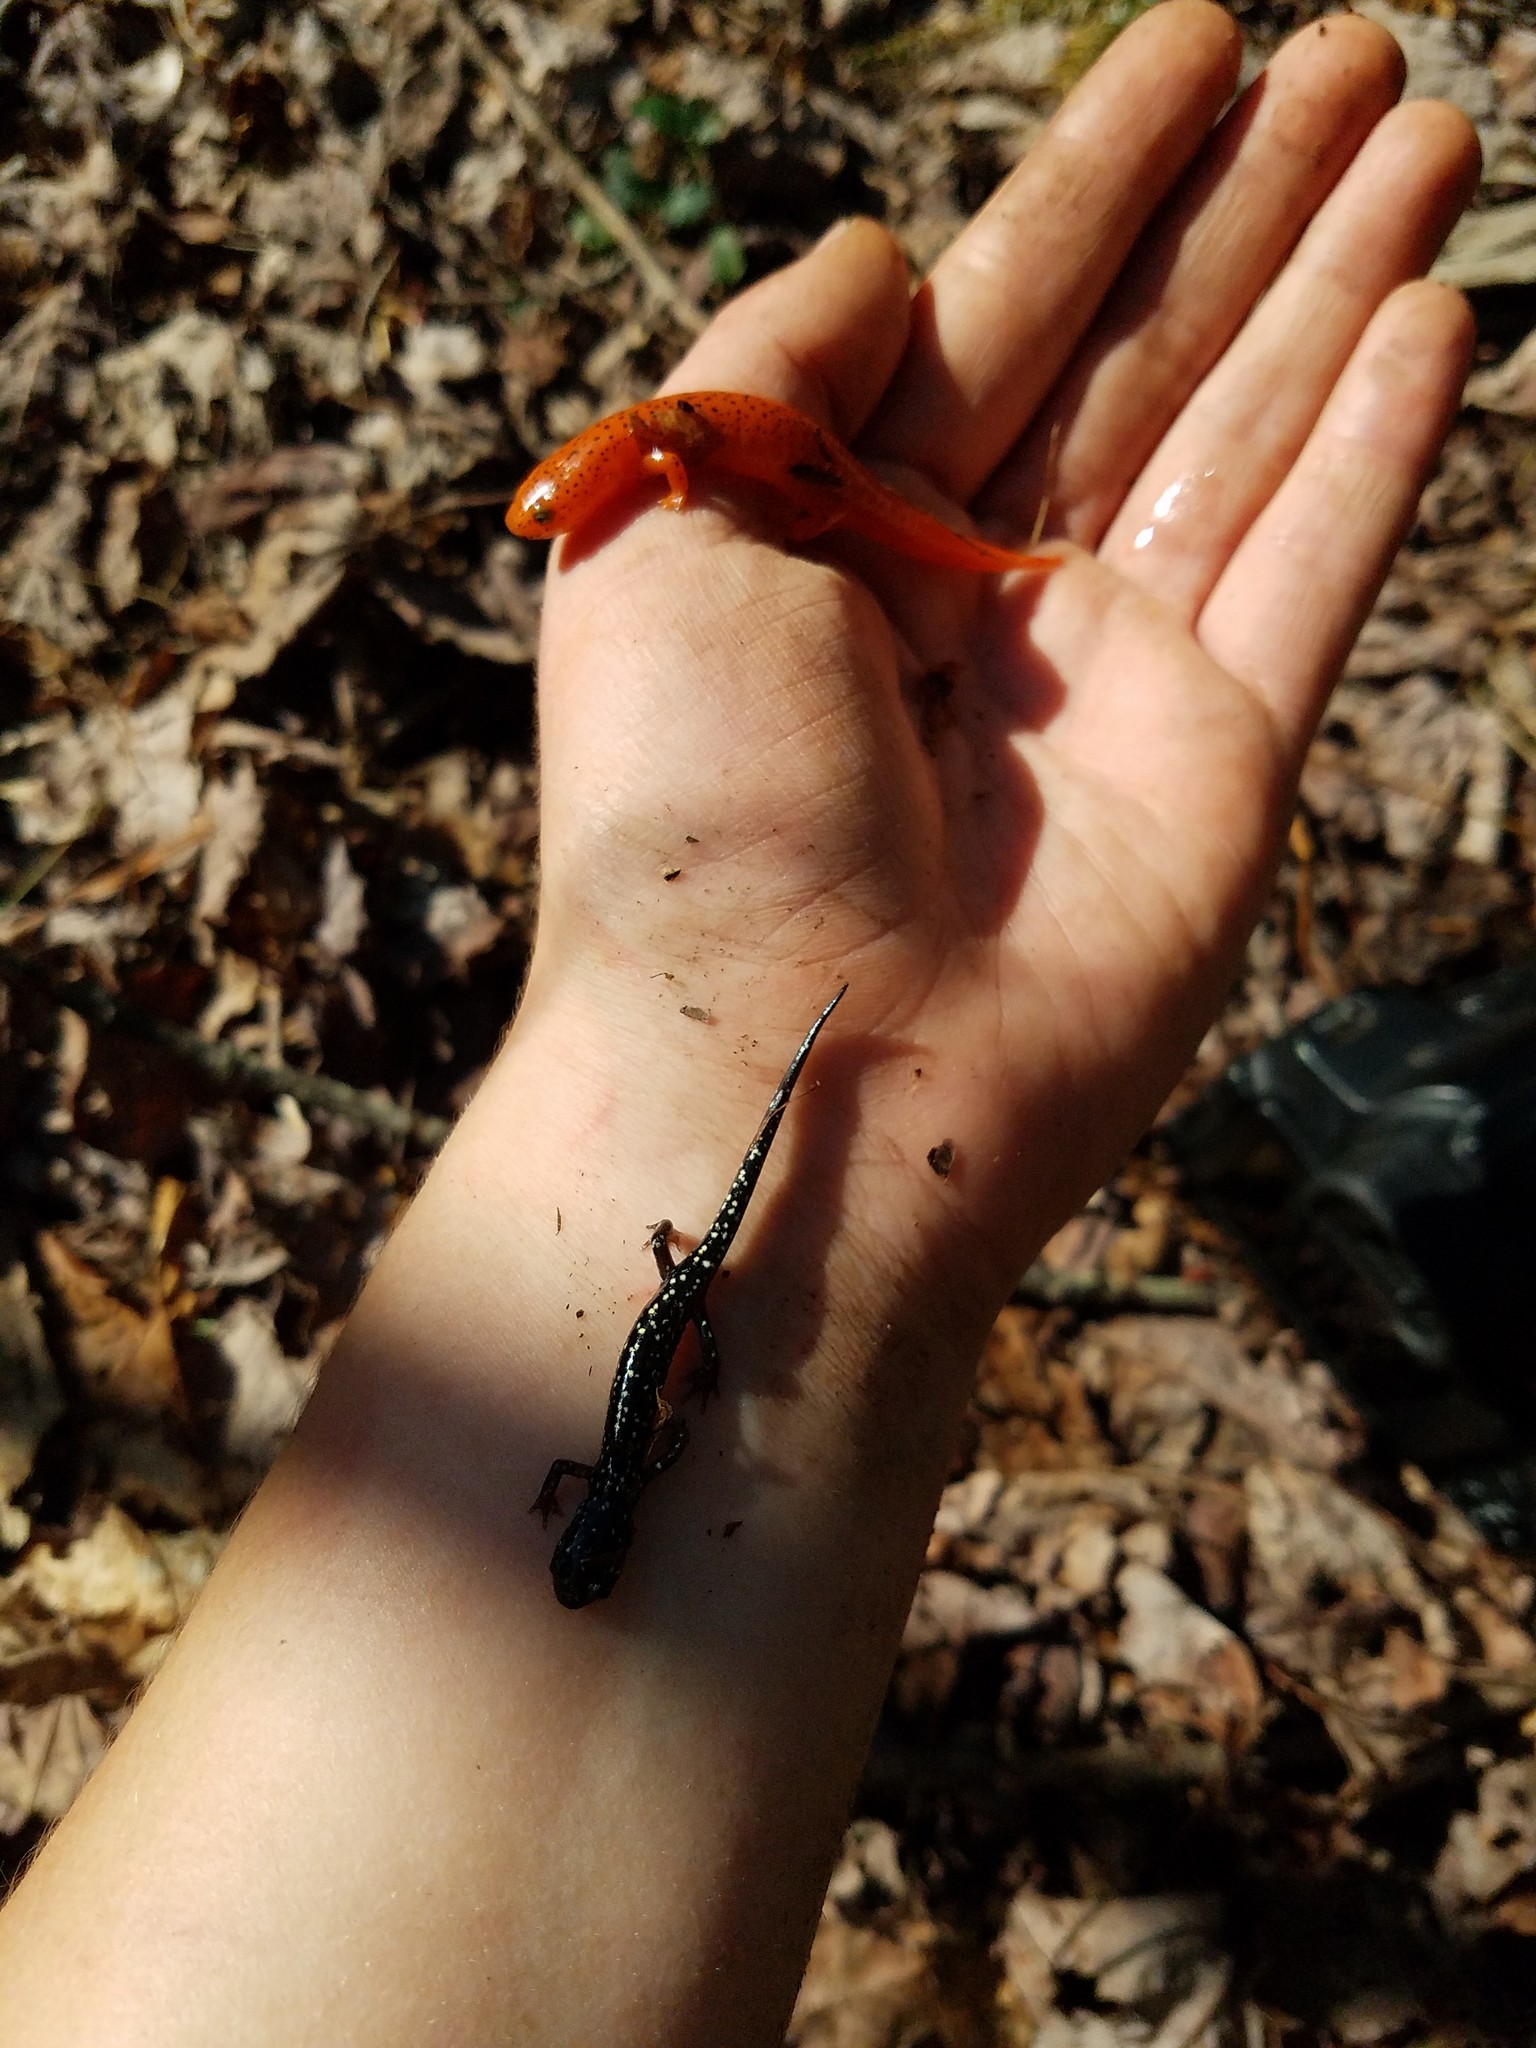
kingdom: Animalia
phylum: Chordata
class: Amphibia
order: Caudata
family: Plethodontidae
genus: Pseudotriton
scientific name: Pseudotriton ruber
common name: Red salamander
